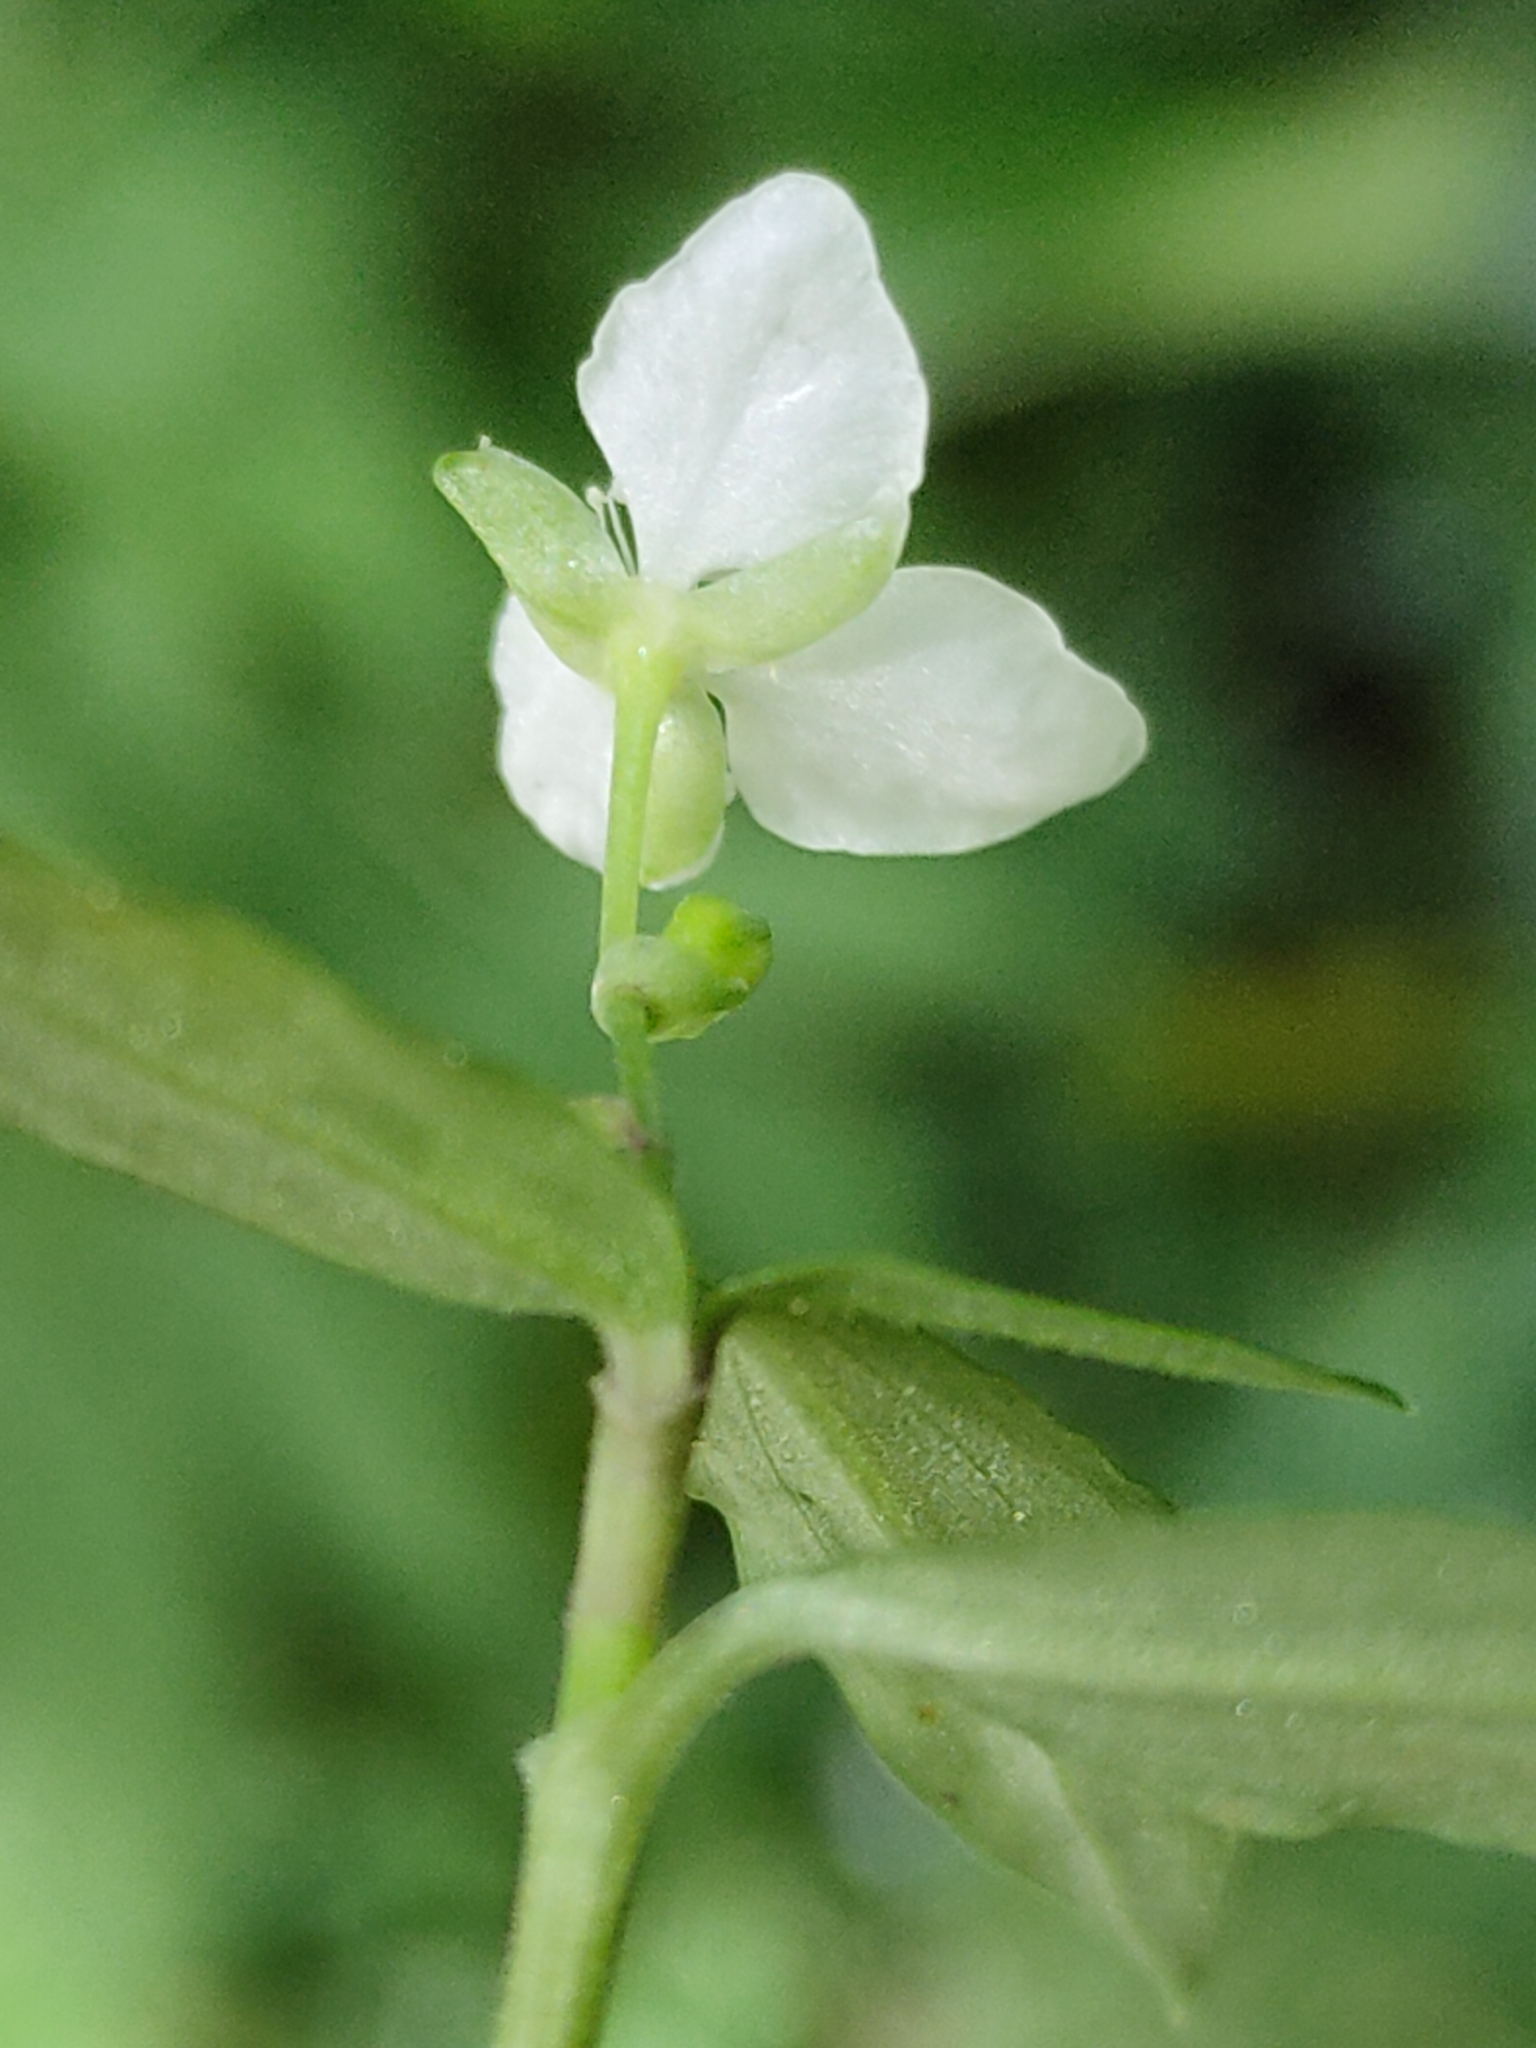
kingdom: Plantae
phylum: Tracheophyta
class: Liliopsida
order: Commelinales
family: Commelinaceae
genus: Aneilema
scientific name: Aneilema acuminatum
